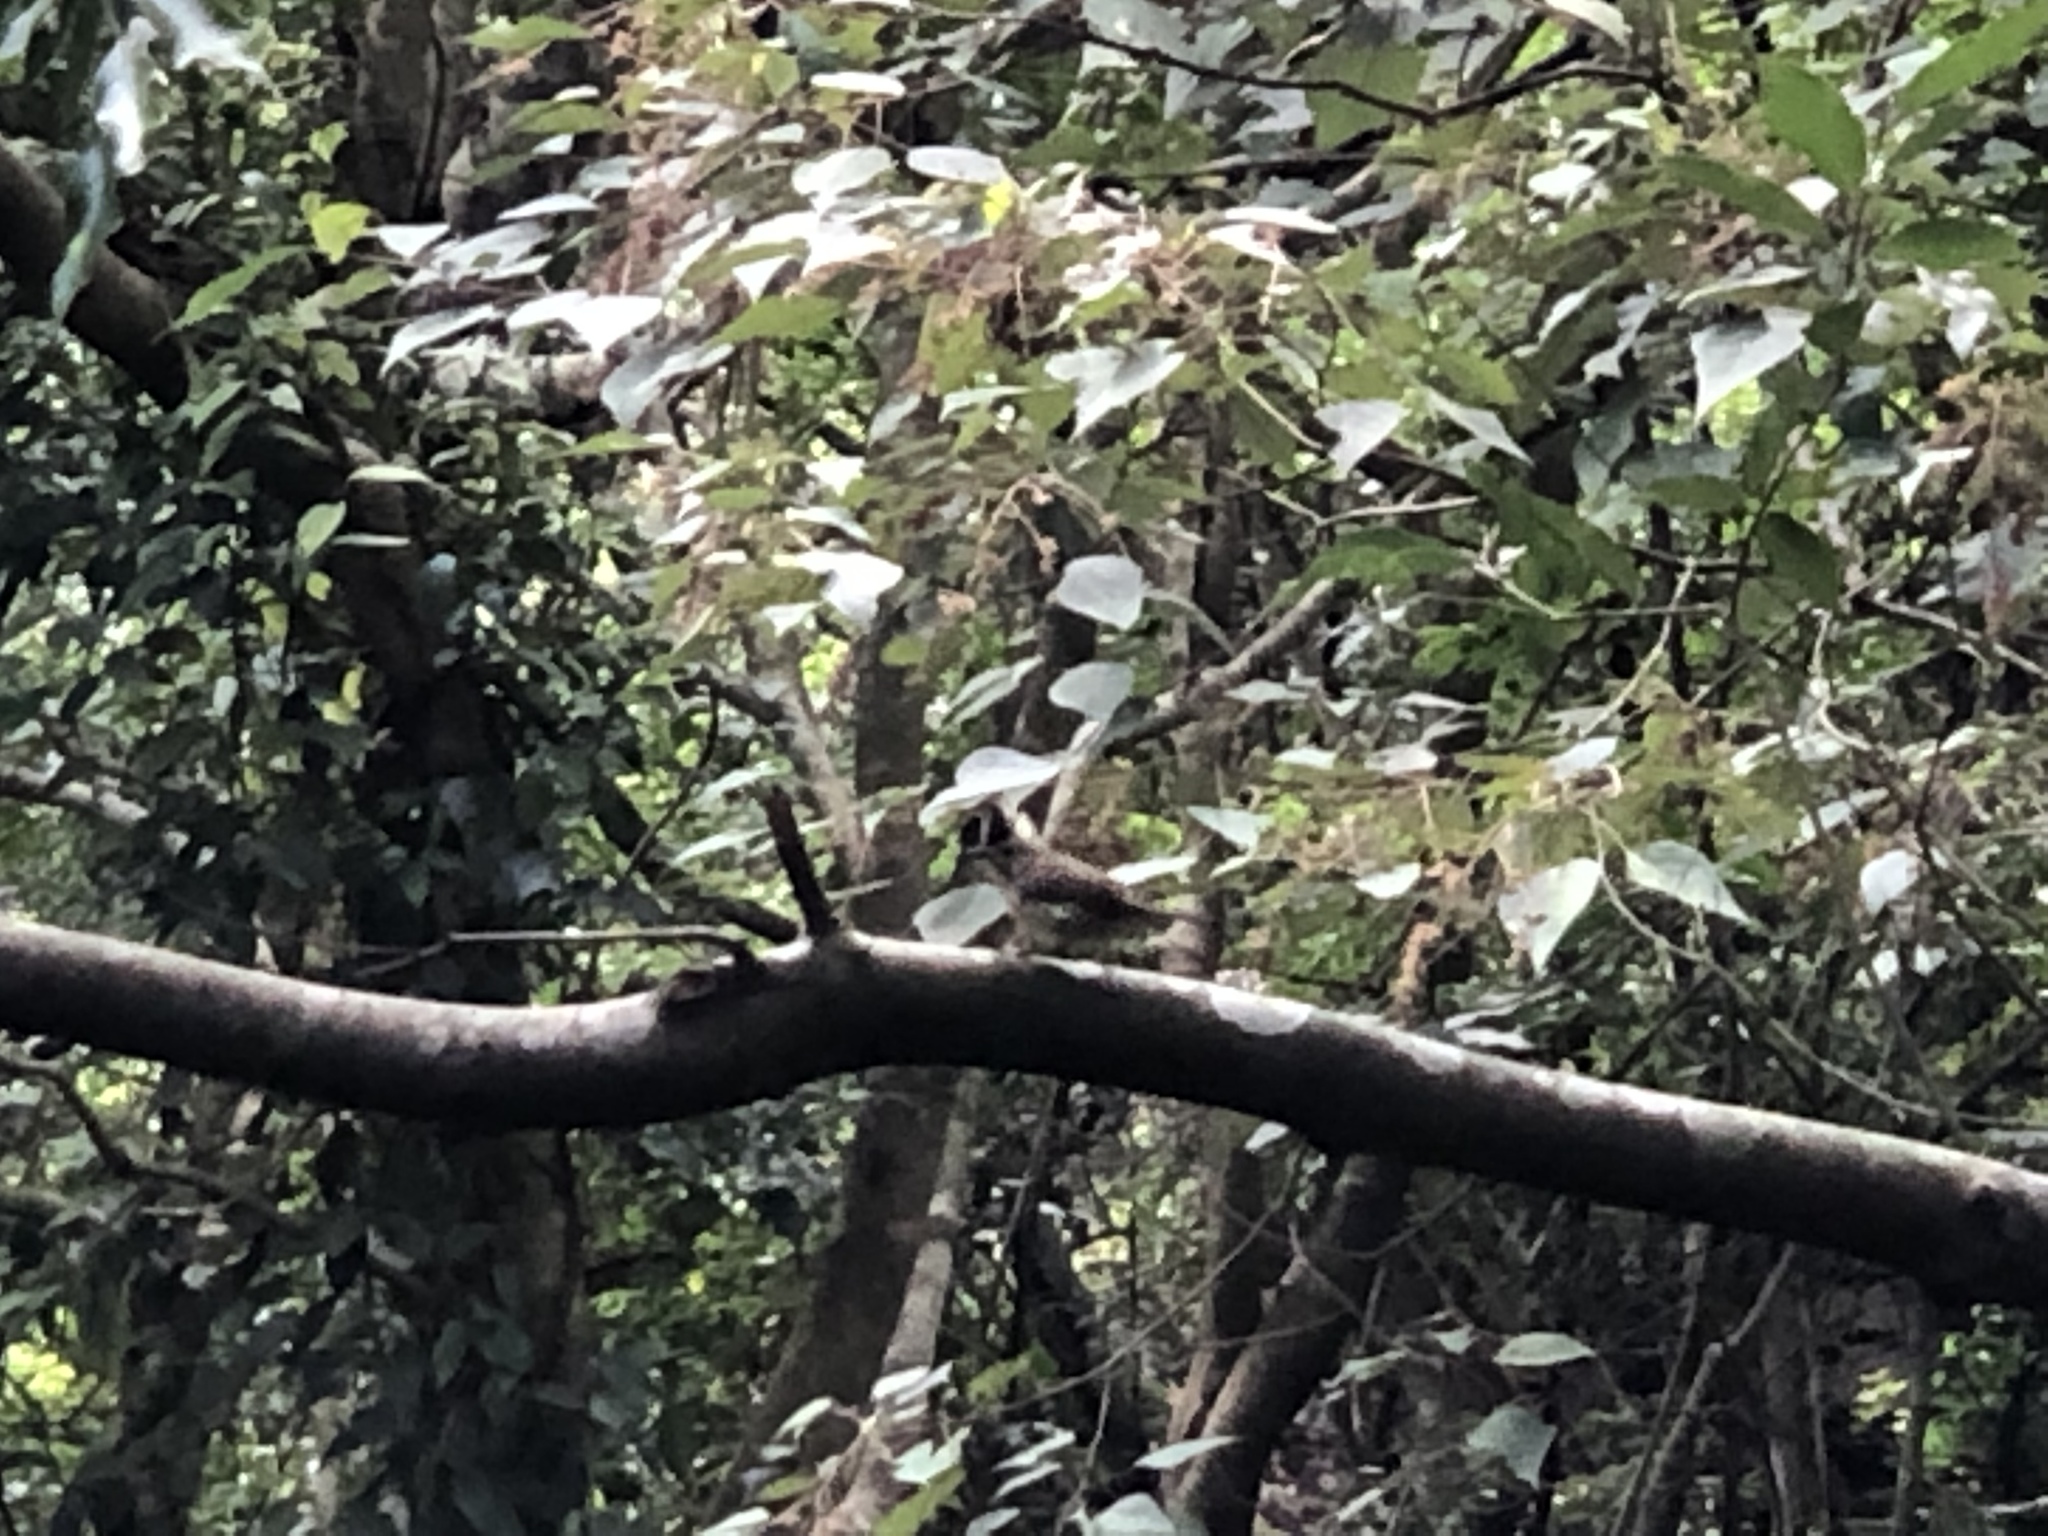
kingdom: Plantae
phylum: Tracheophyta
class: Magnoliopsida
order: Malpighiales
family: Euphorbiaceae
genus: Mallotus
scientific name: Mallotus paniculatus
